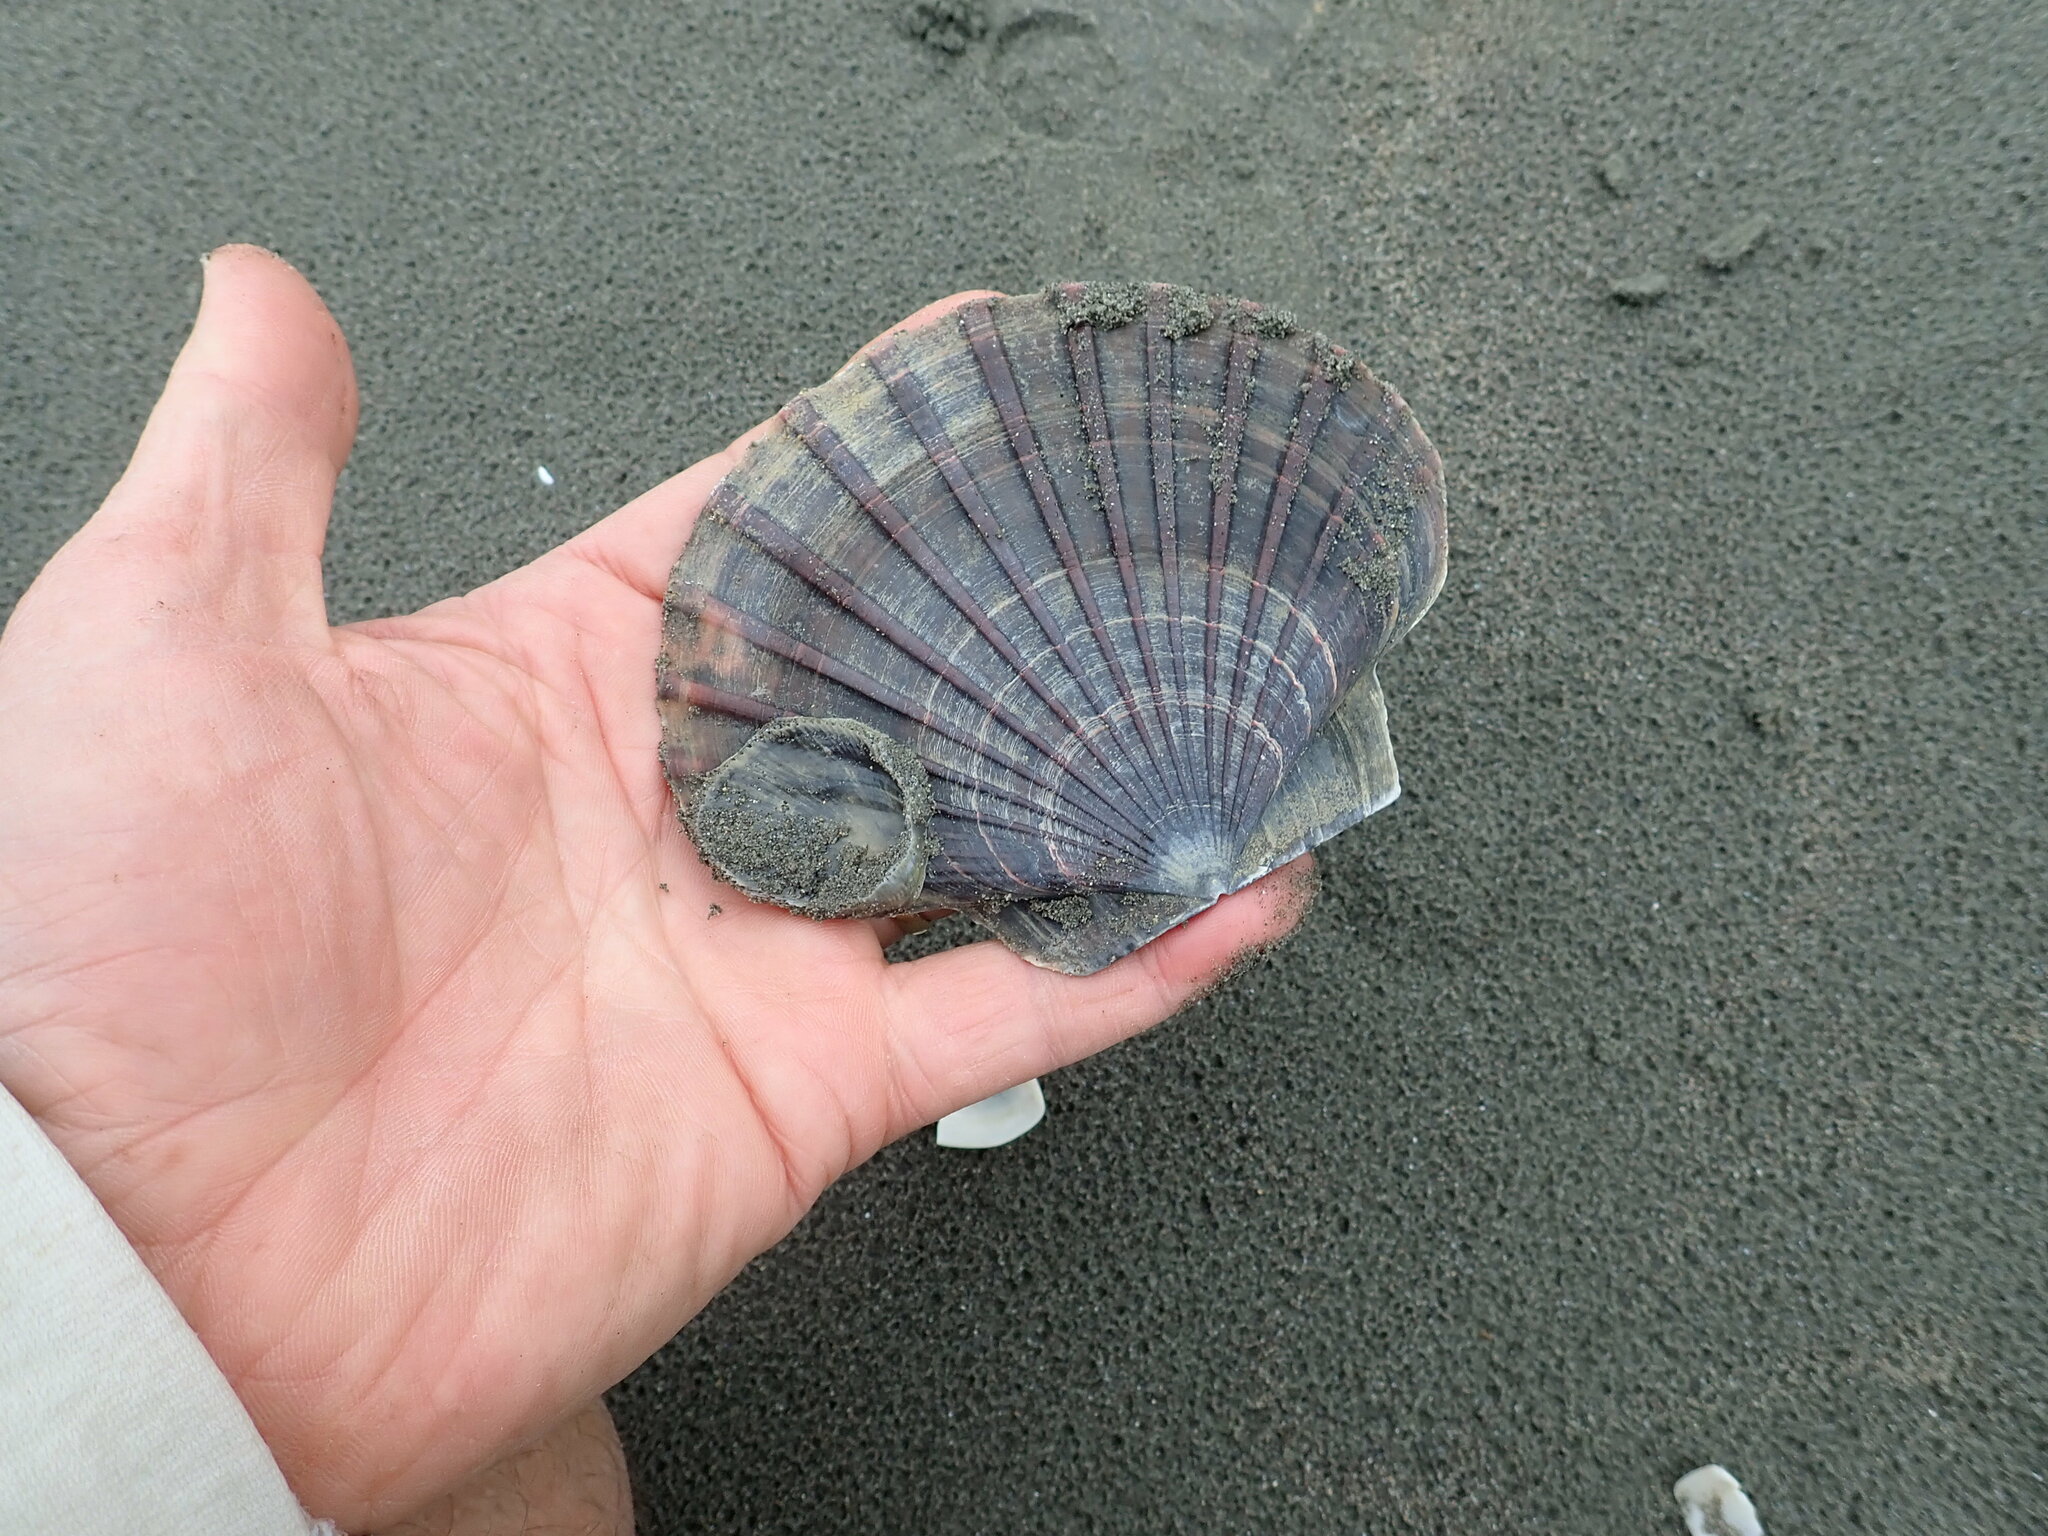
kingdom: Animalia
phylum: Mollusca
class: Bivalvia
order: Pectinida
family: Pectinidae
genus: Pecten
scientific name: Pecten novaezelandiae
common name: New zealand scallop
